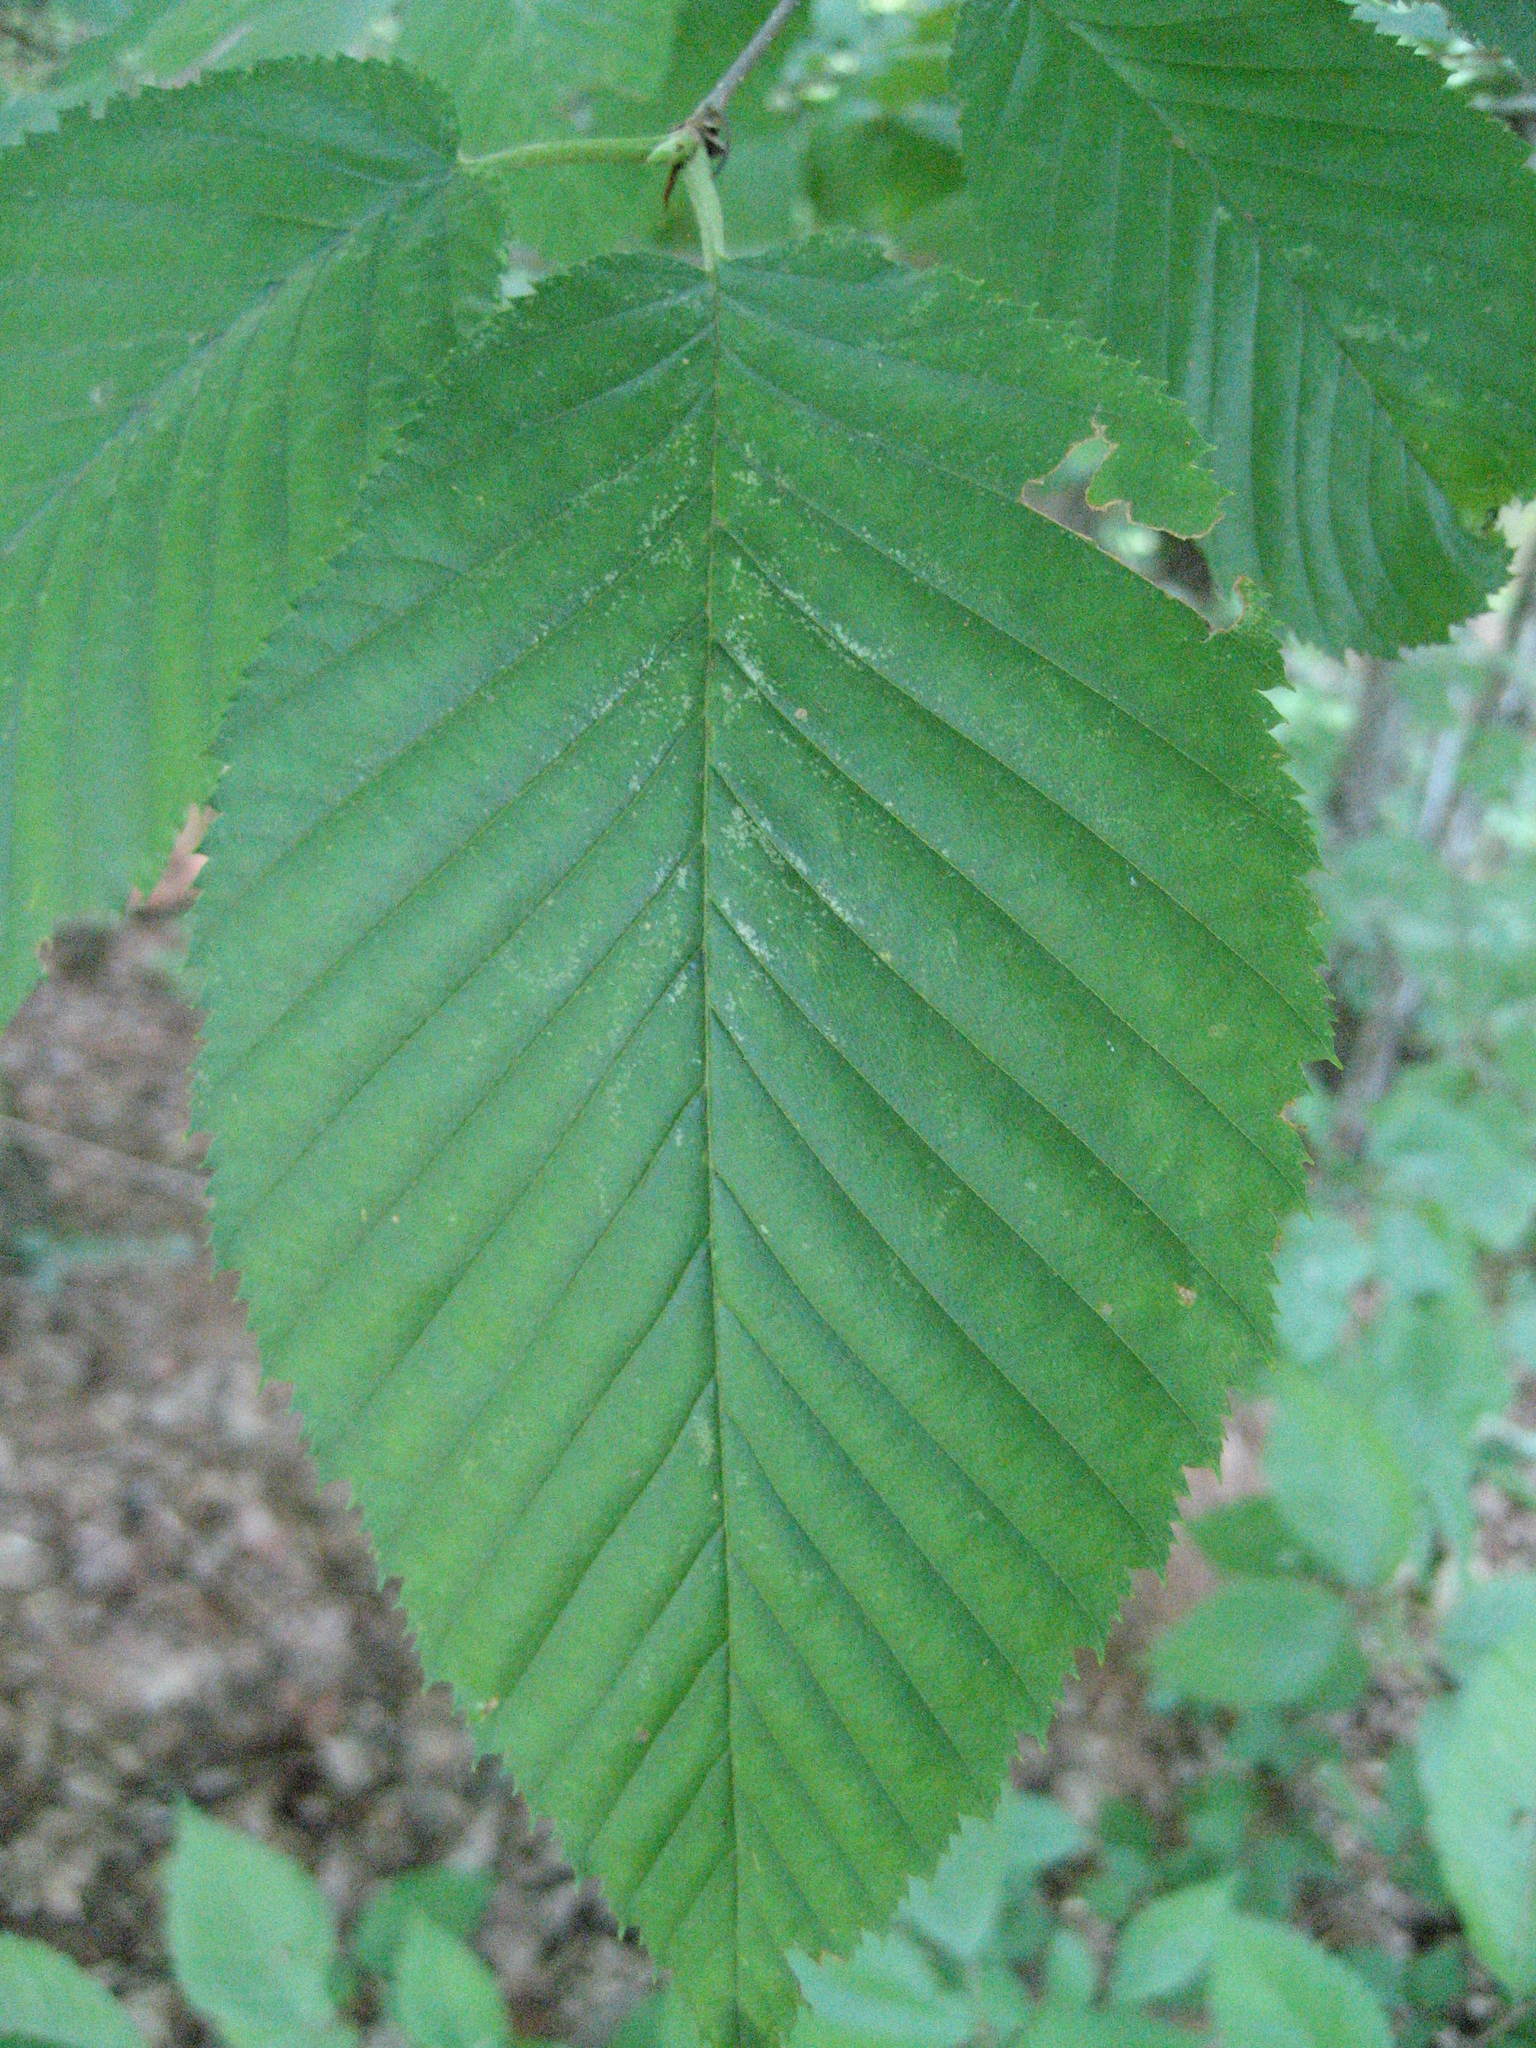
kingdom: Plantae
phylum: Tracheophyta
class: Magnoliopsida
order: Fagales
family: Betulaceae
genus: Betula
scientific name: Betula alleghaniensis
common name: Yellow birch
